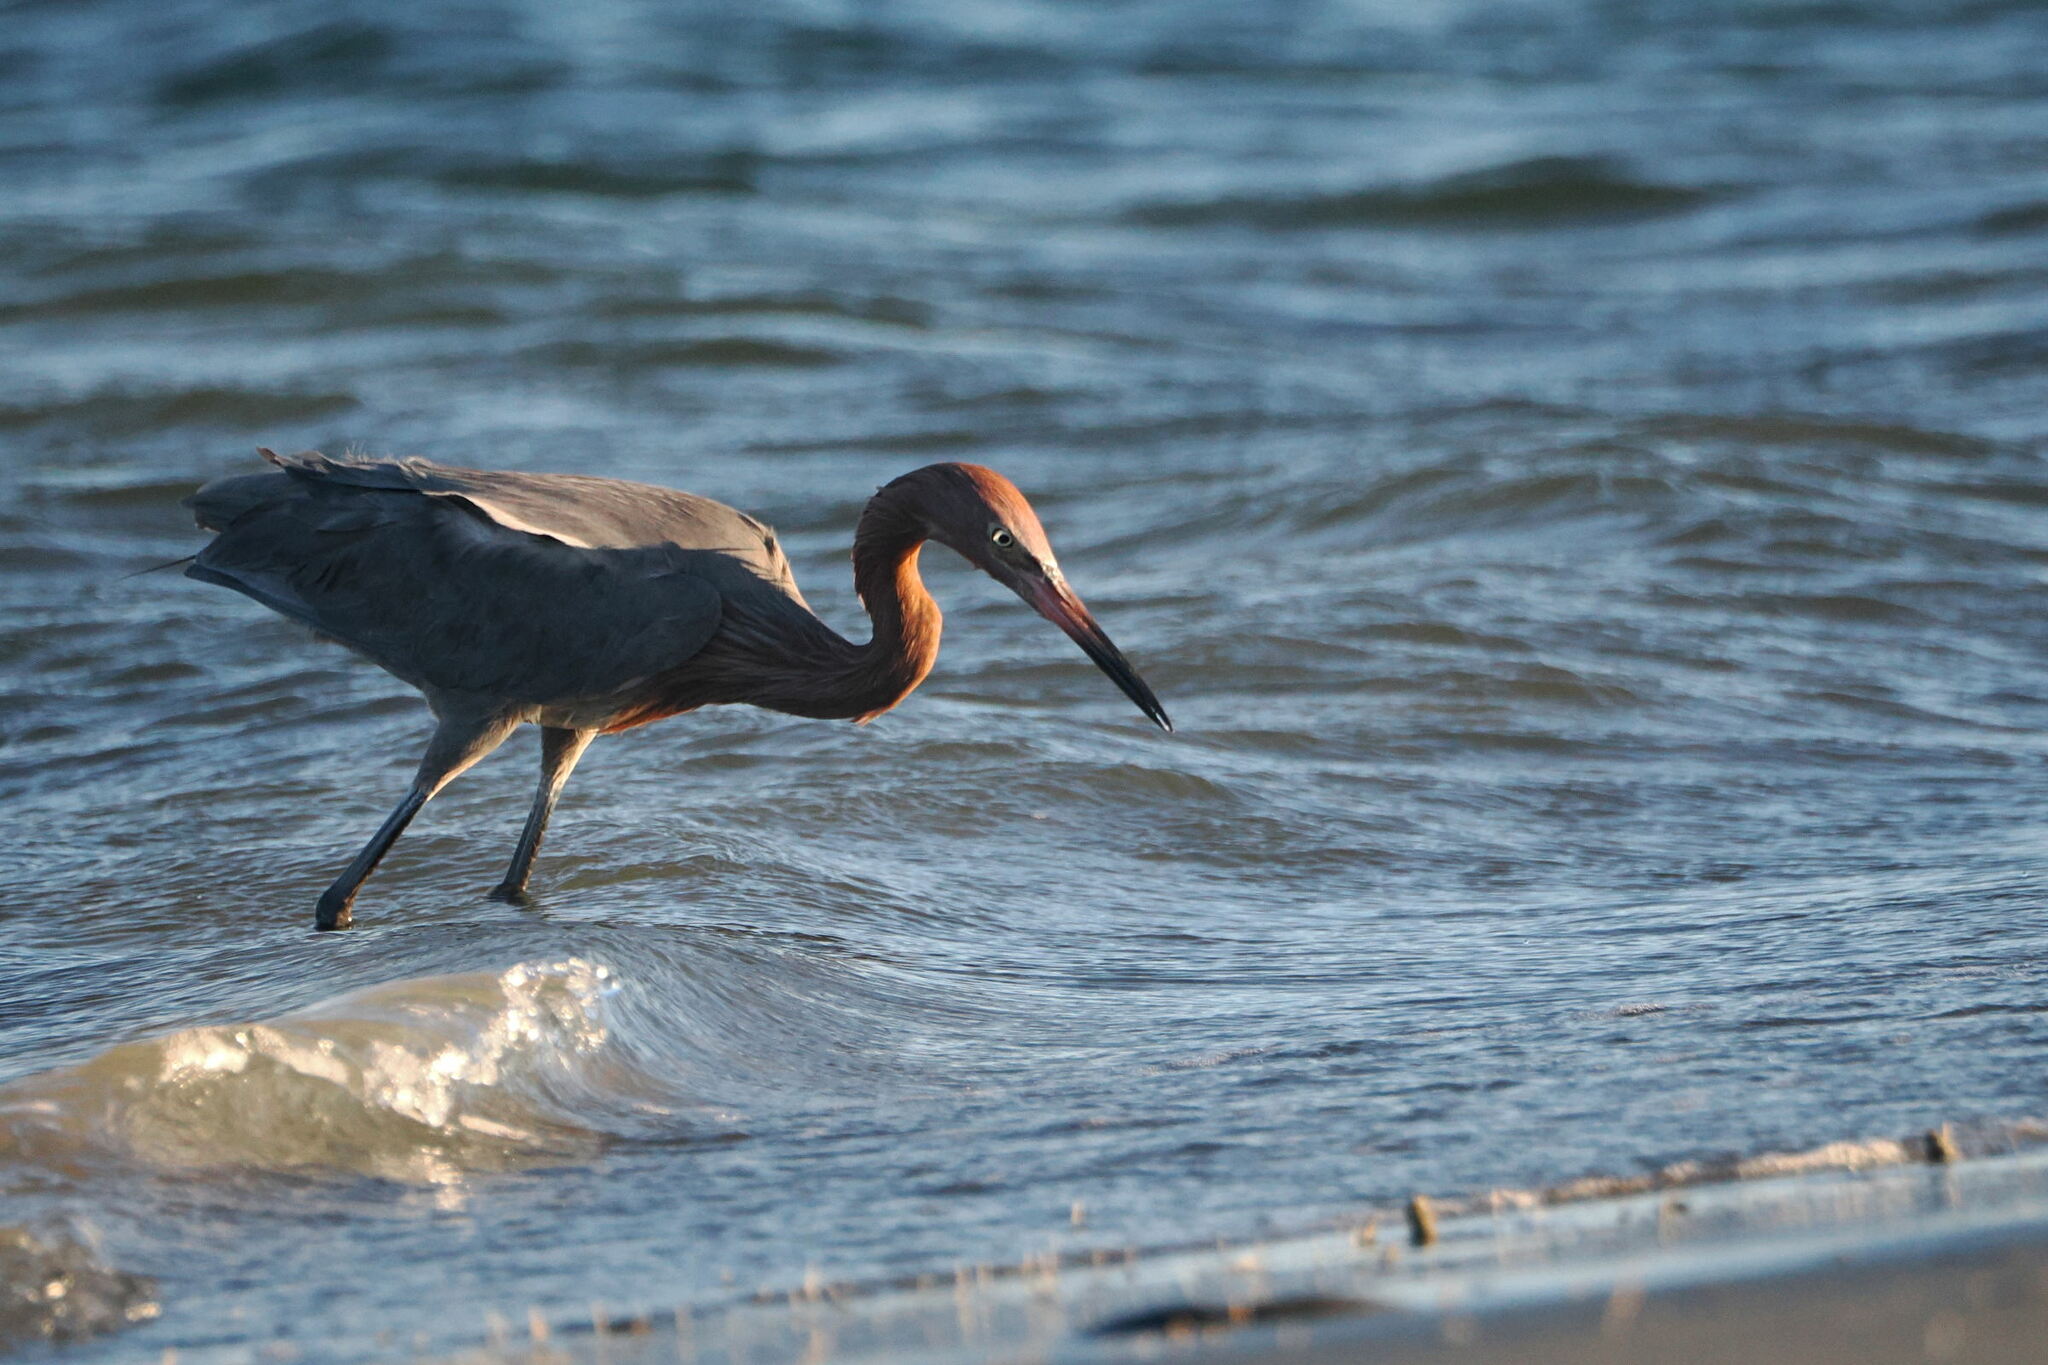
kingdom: Animalia
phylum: Chordata
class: Aves
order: Pelecaniformes
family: Ardeidae
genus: Egretta
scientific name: Egretta rufescens
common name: Reddish egret
